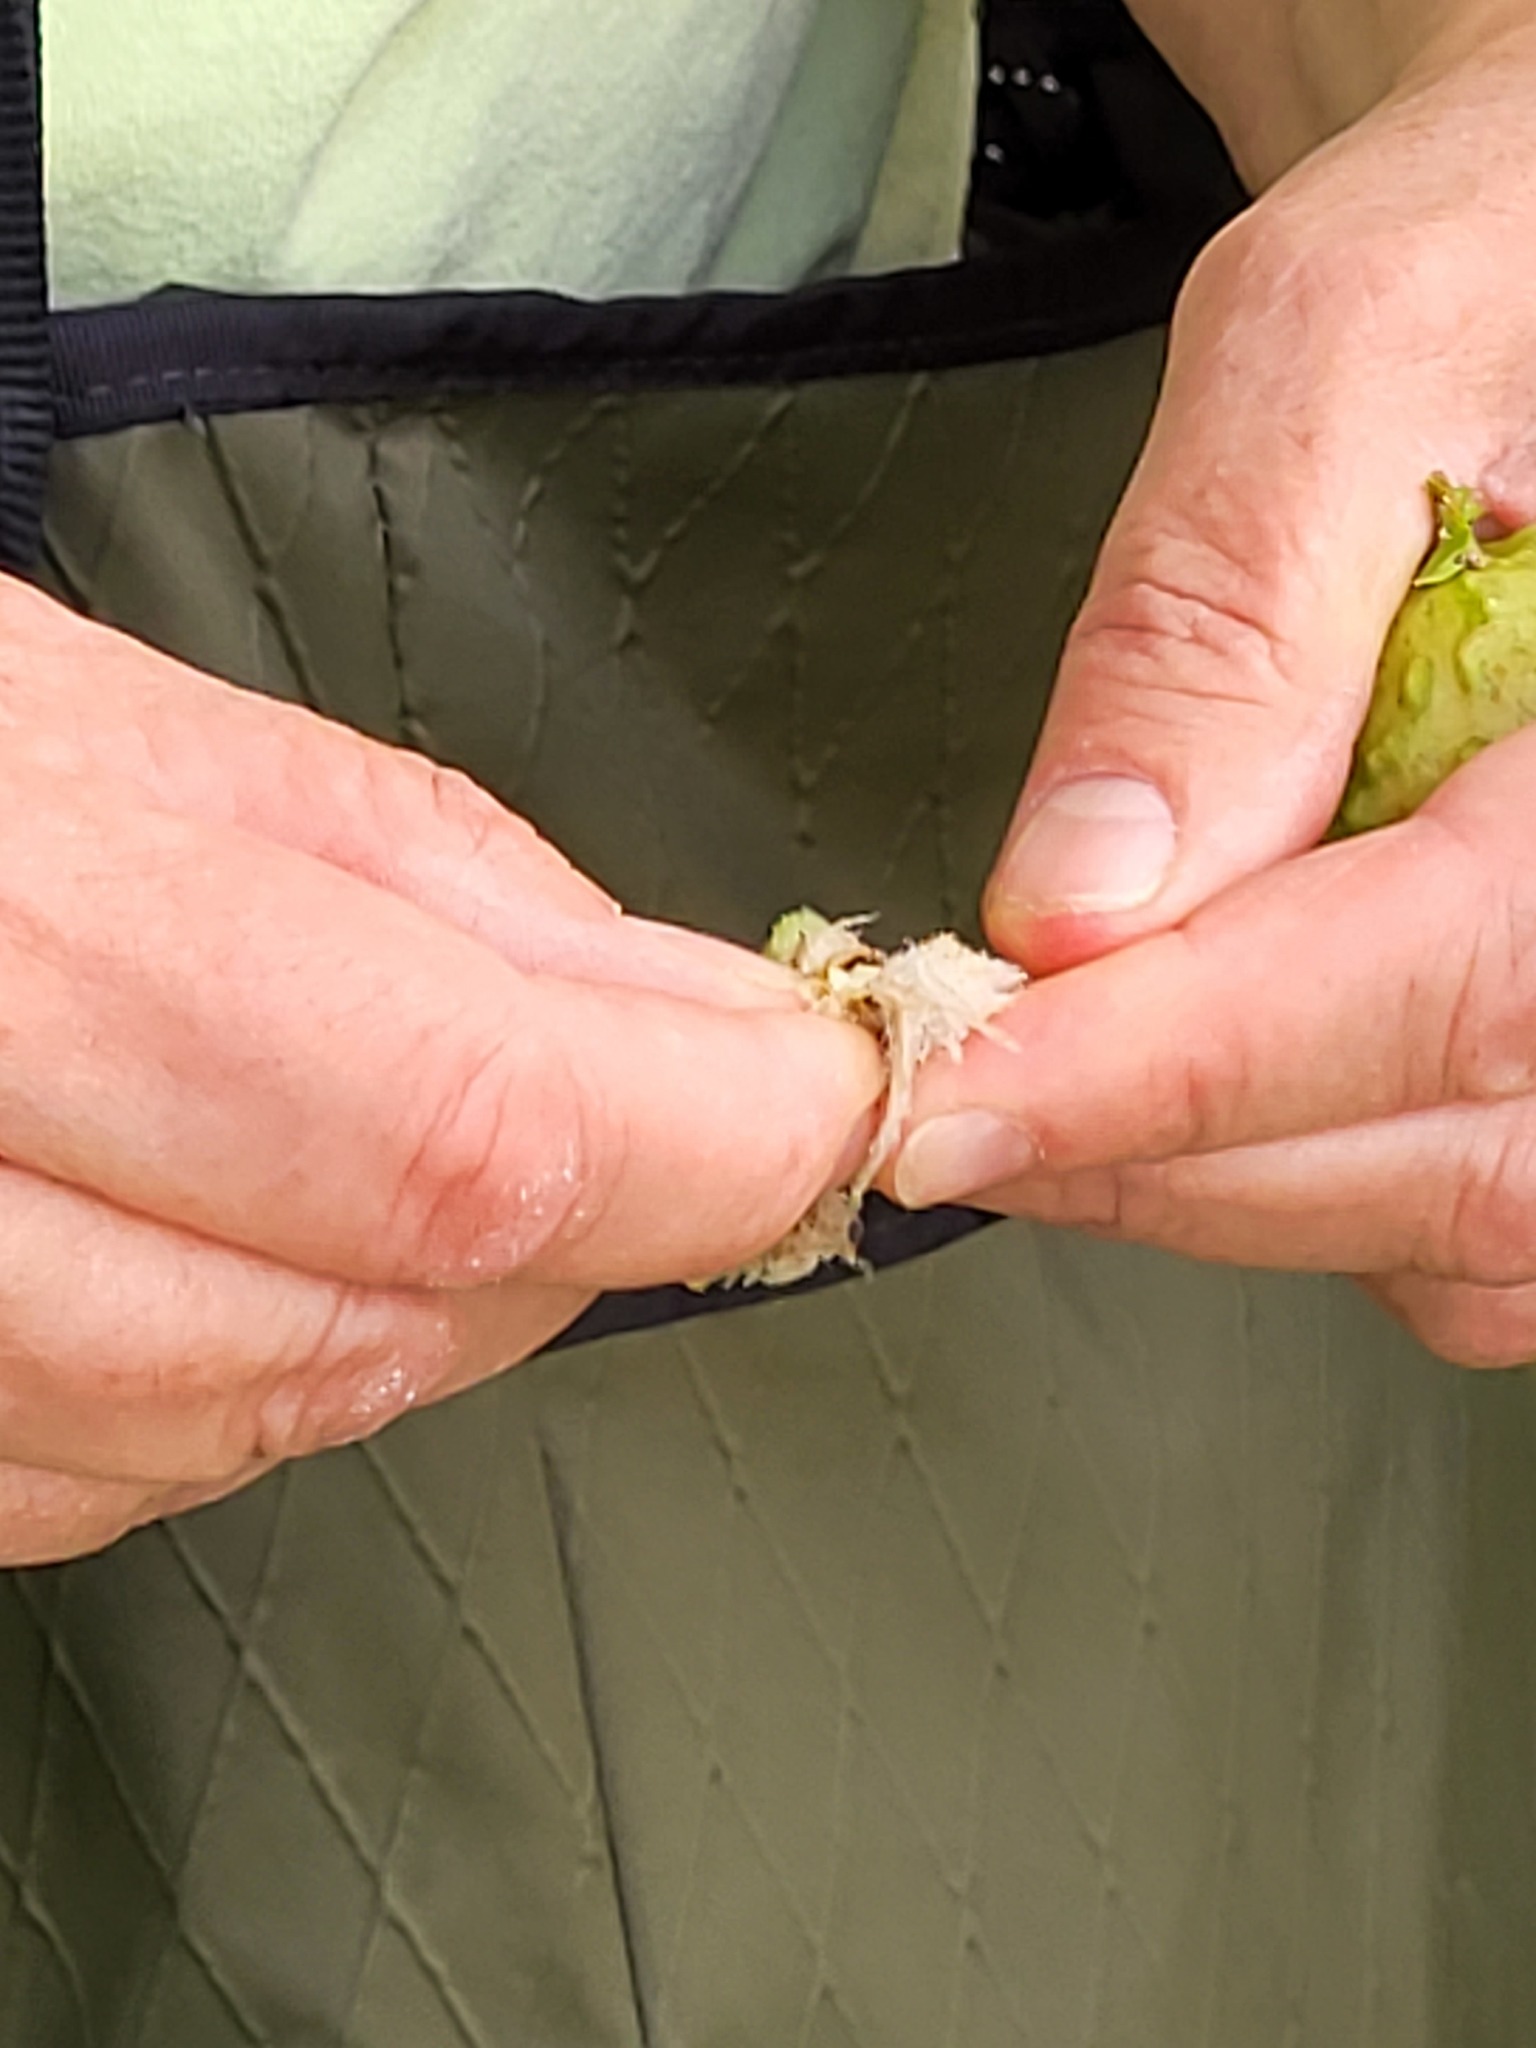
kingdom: Animalia
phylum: Arthropoda
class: Insecta
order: Hymenoptera
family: Cynipidae
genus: Amphibolips
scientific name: Amphibolips
